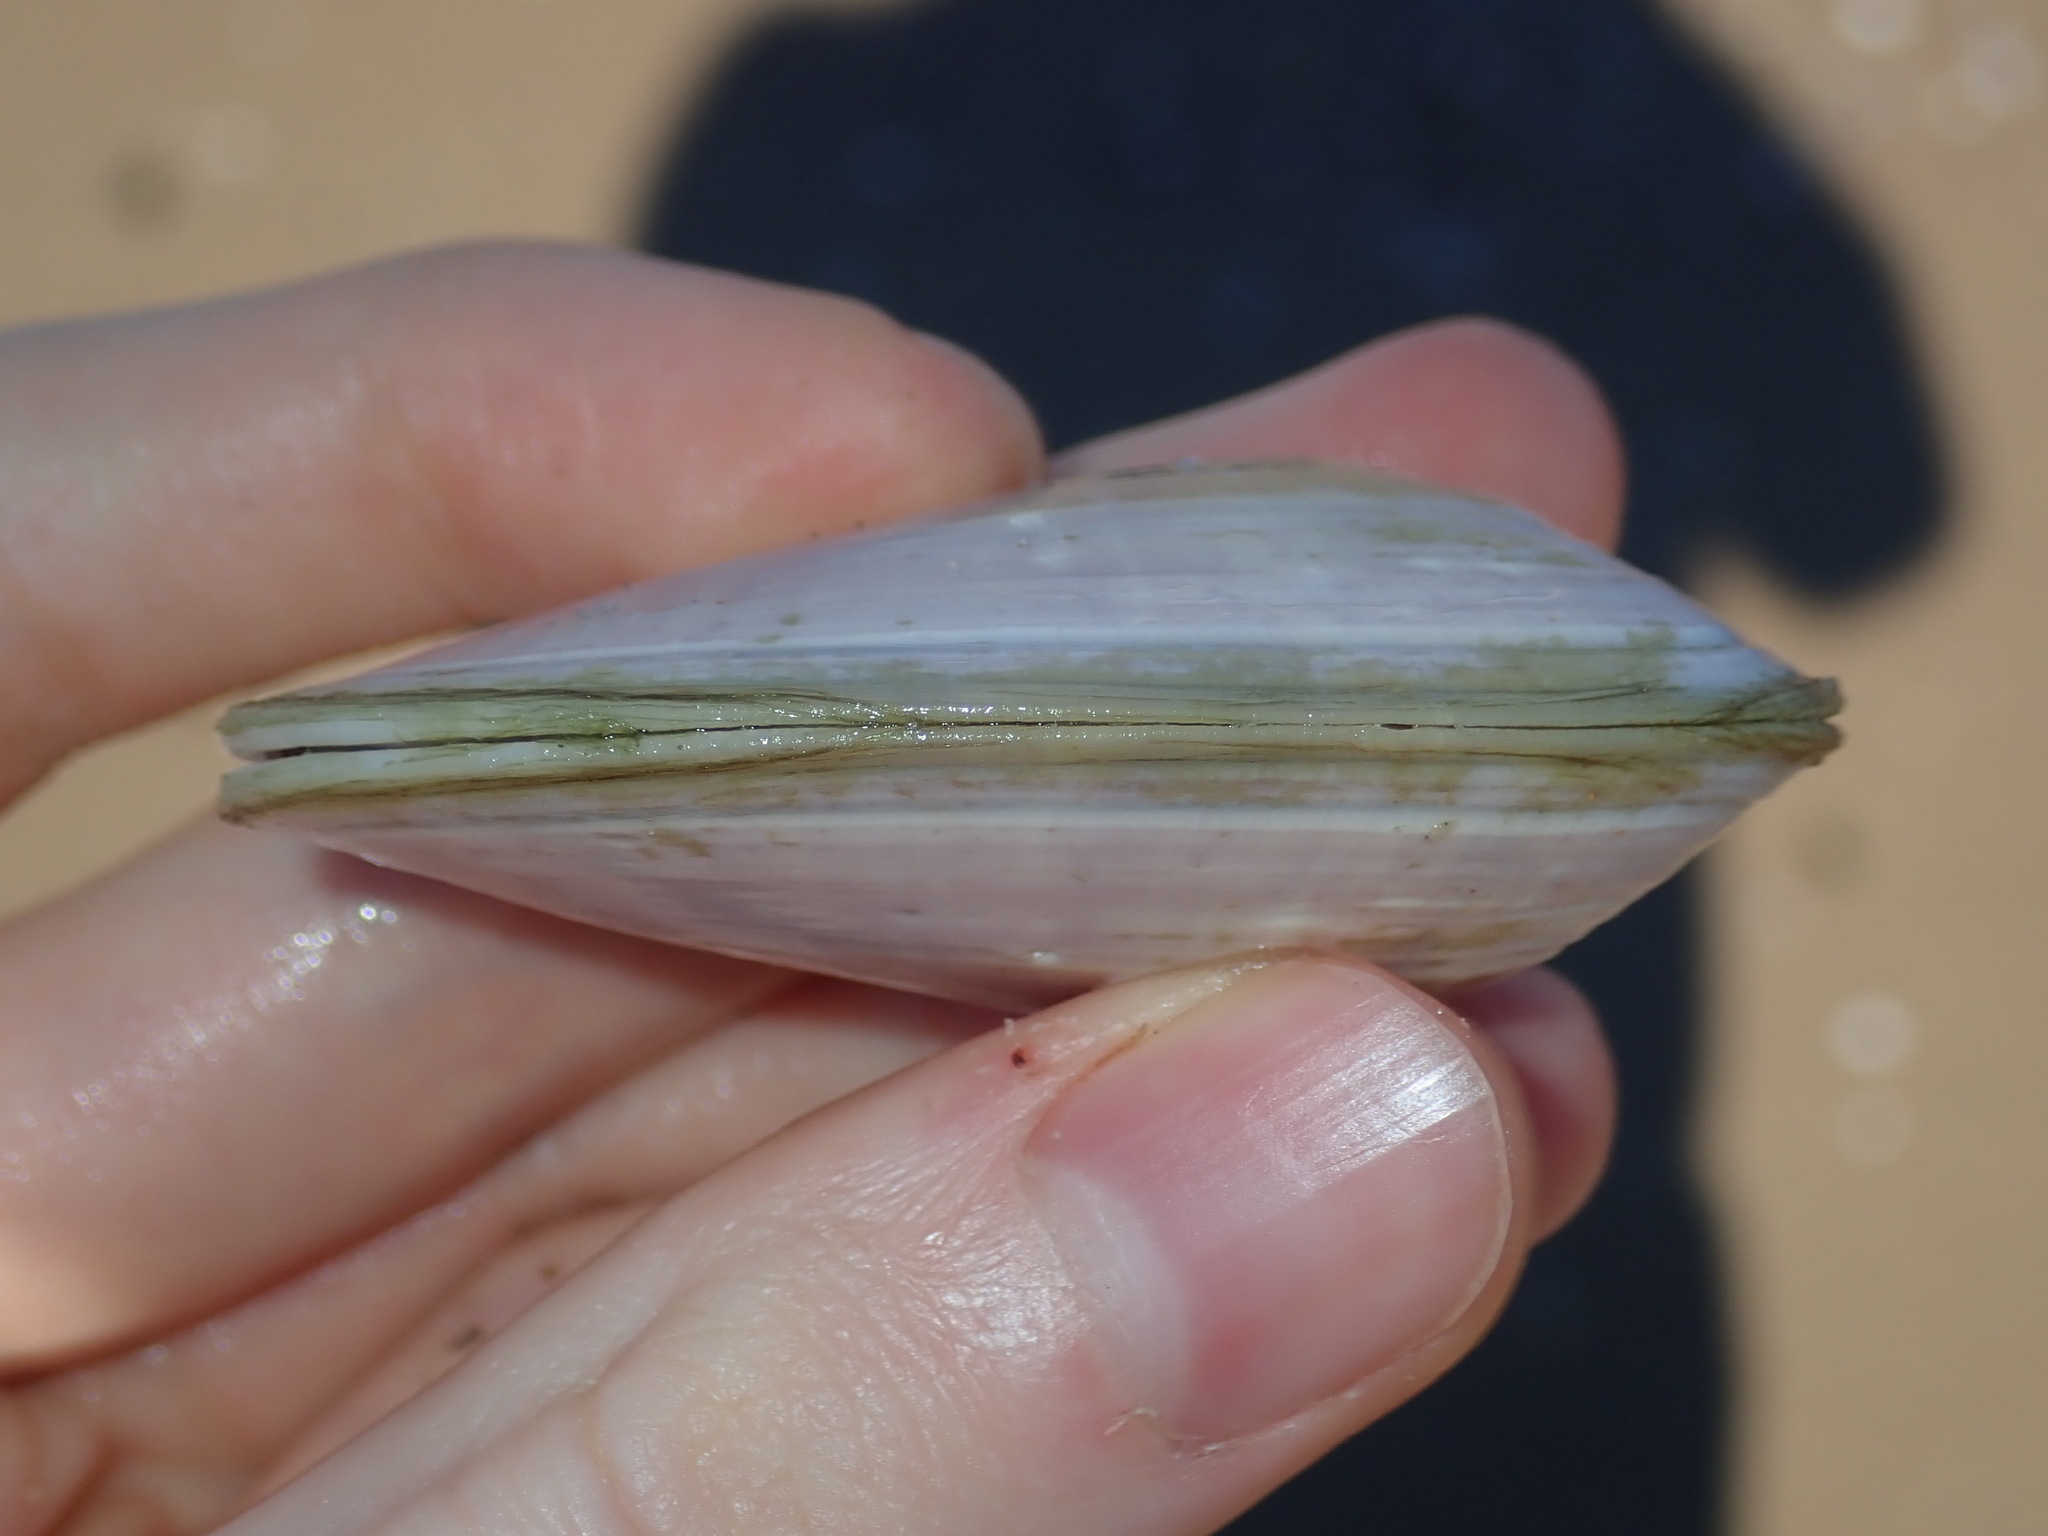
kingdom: Animalia
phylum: Mollusca
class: Bivalvia
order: Cardiida
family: Donacidae
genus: Latona
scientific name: Latona deltoides
